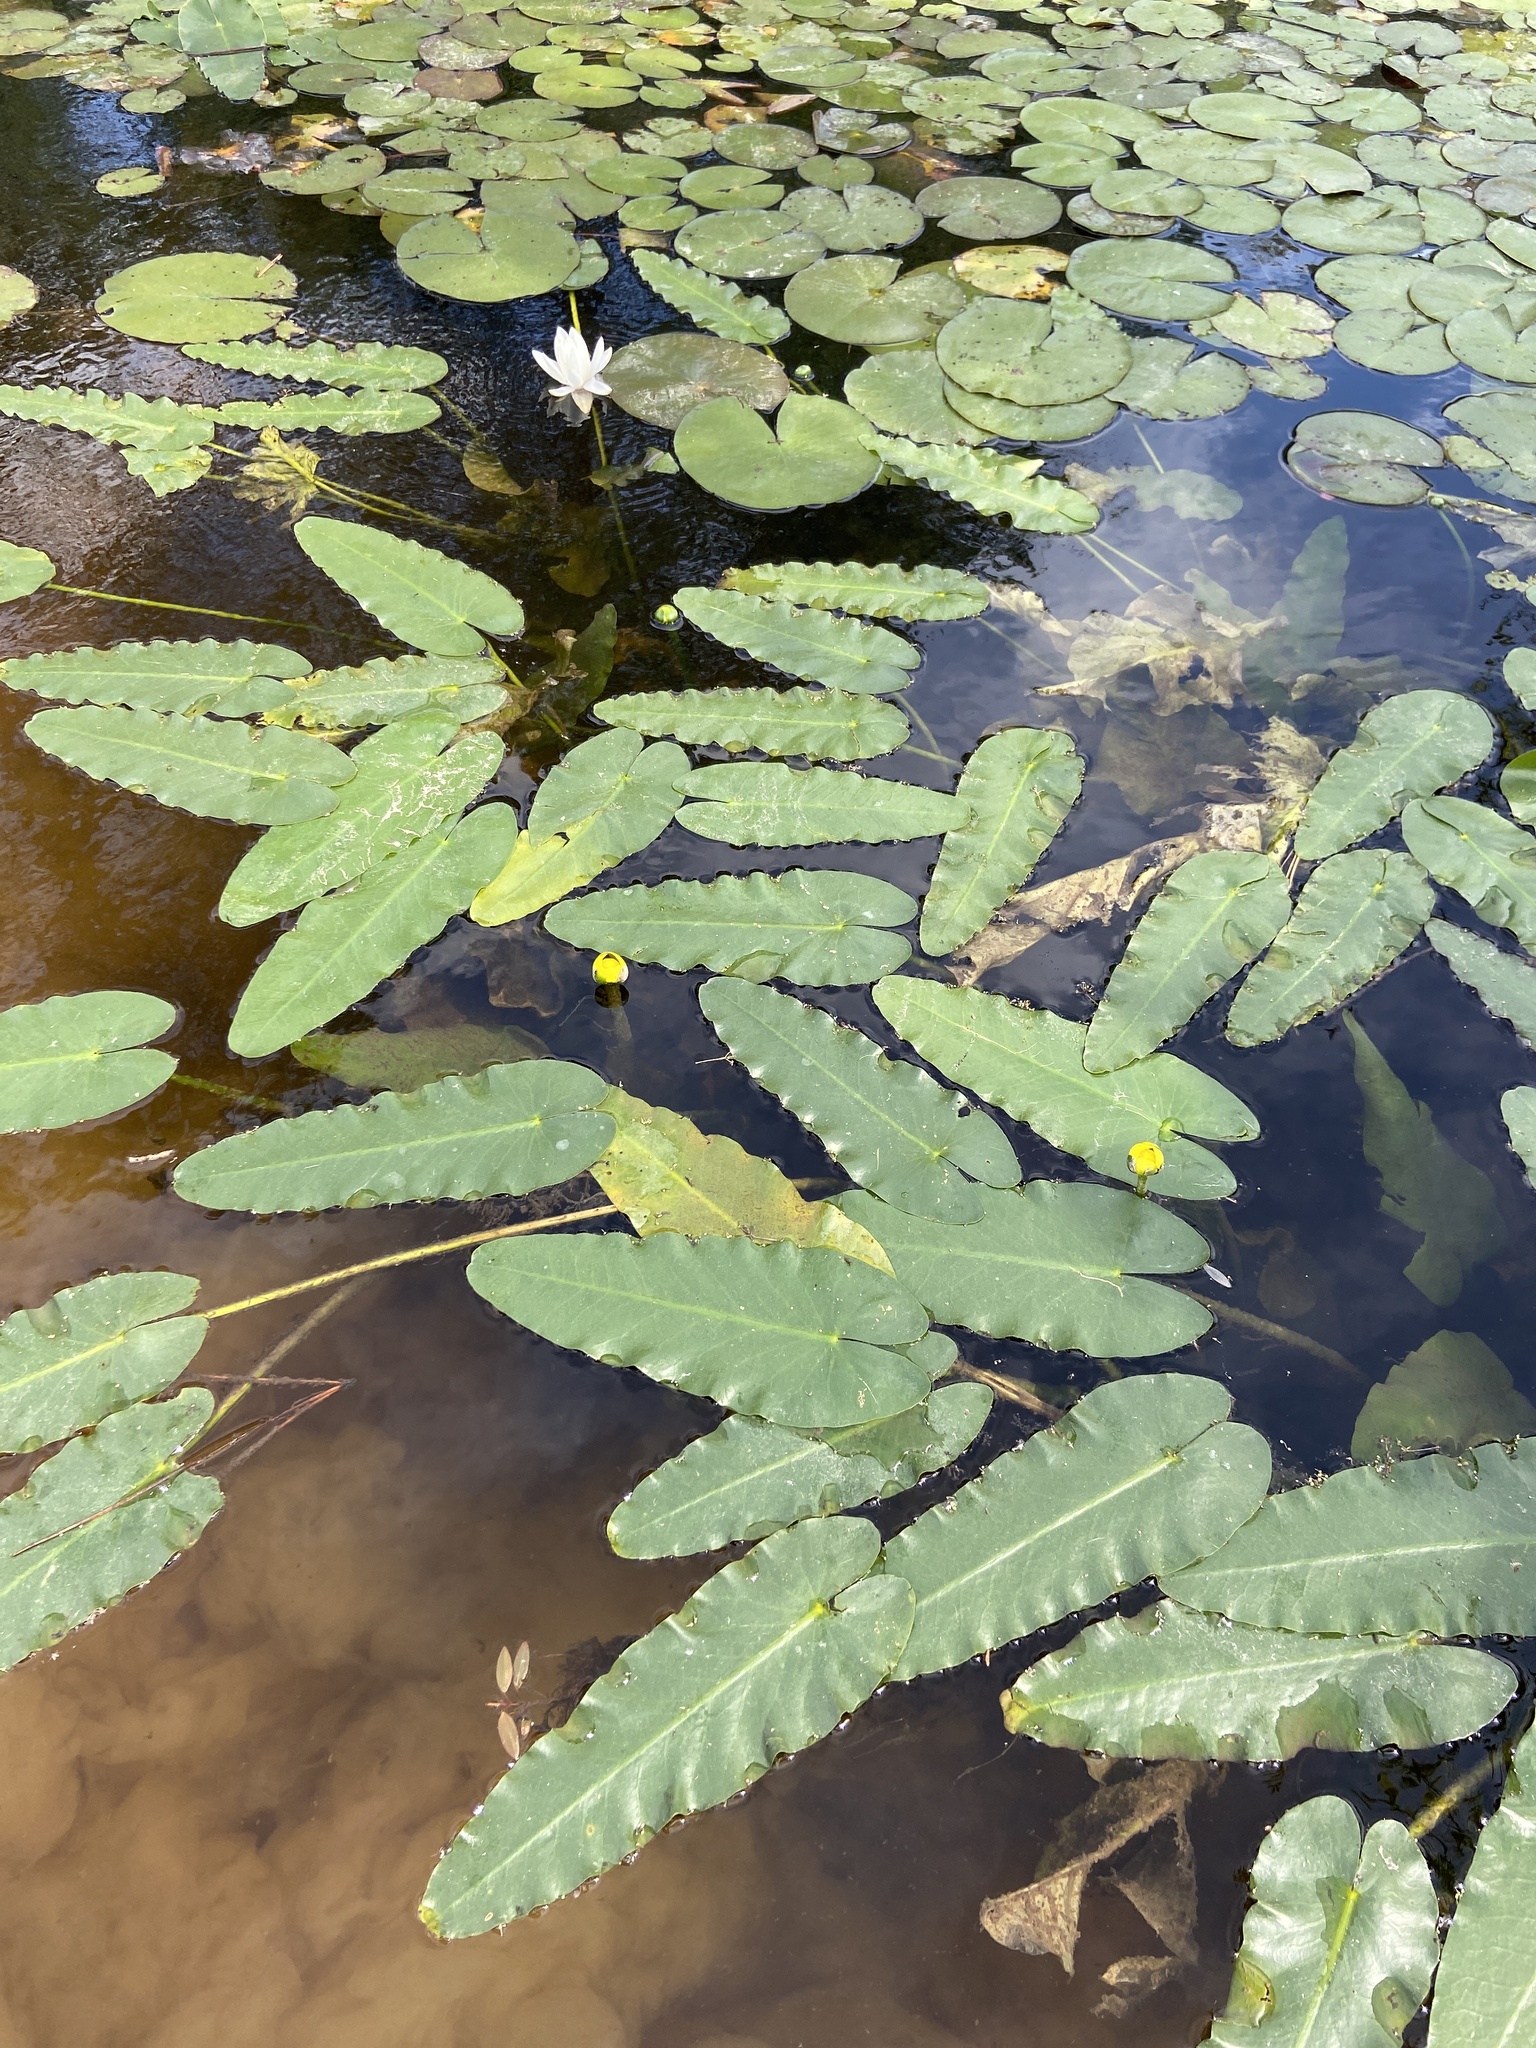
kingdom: Plantae
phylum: Tracheophyta
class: Magnoliopsida
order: Nymphaeales
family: Nymphaeaceae
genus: Nuphar
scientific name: Nuphar sagittifolia
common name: Cape fear spatterdock
